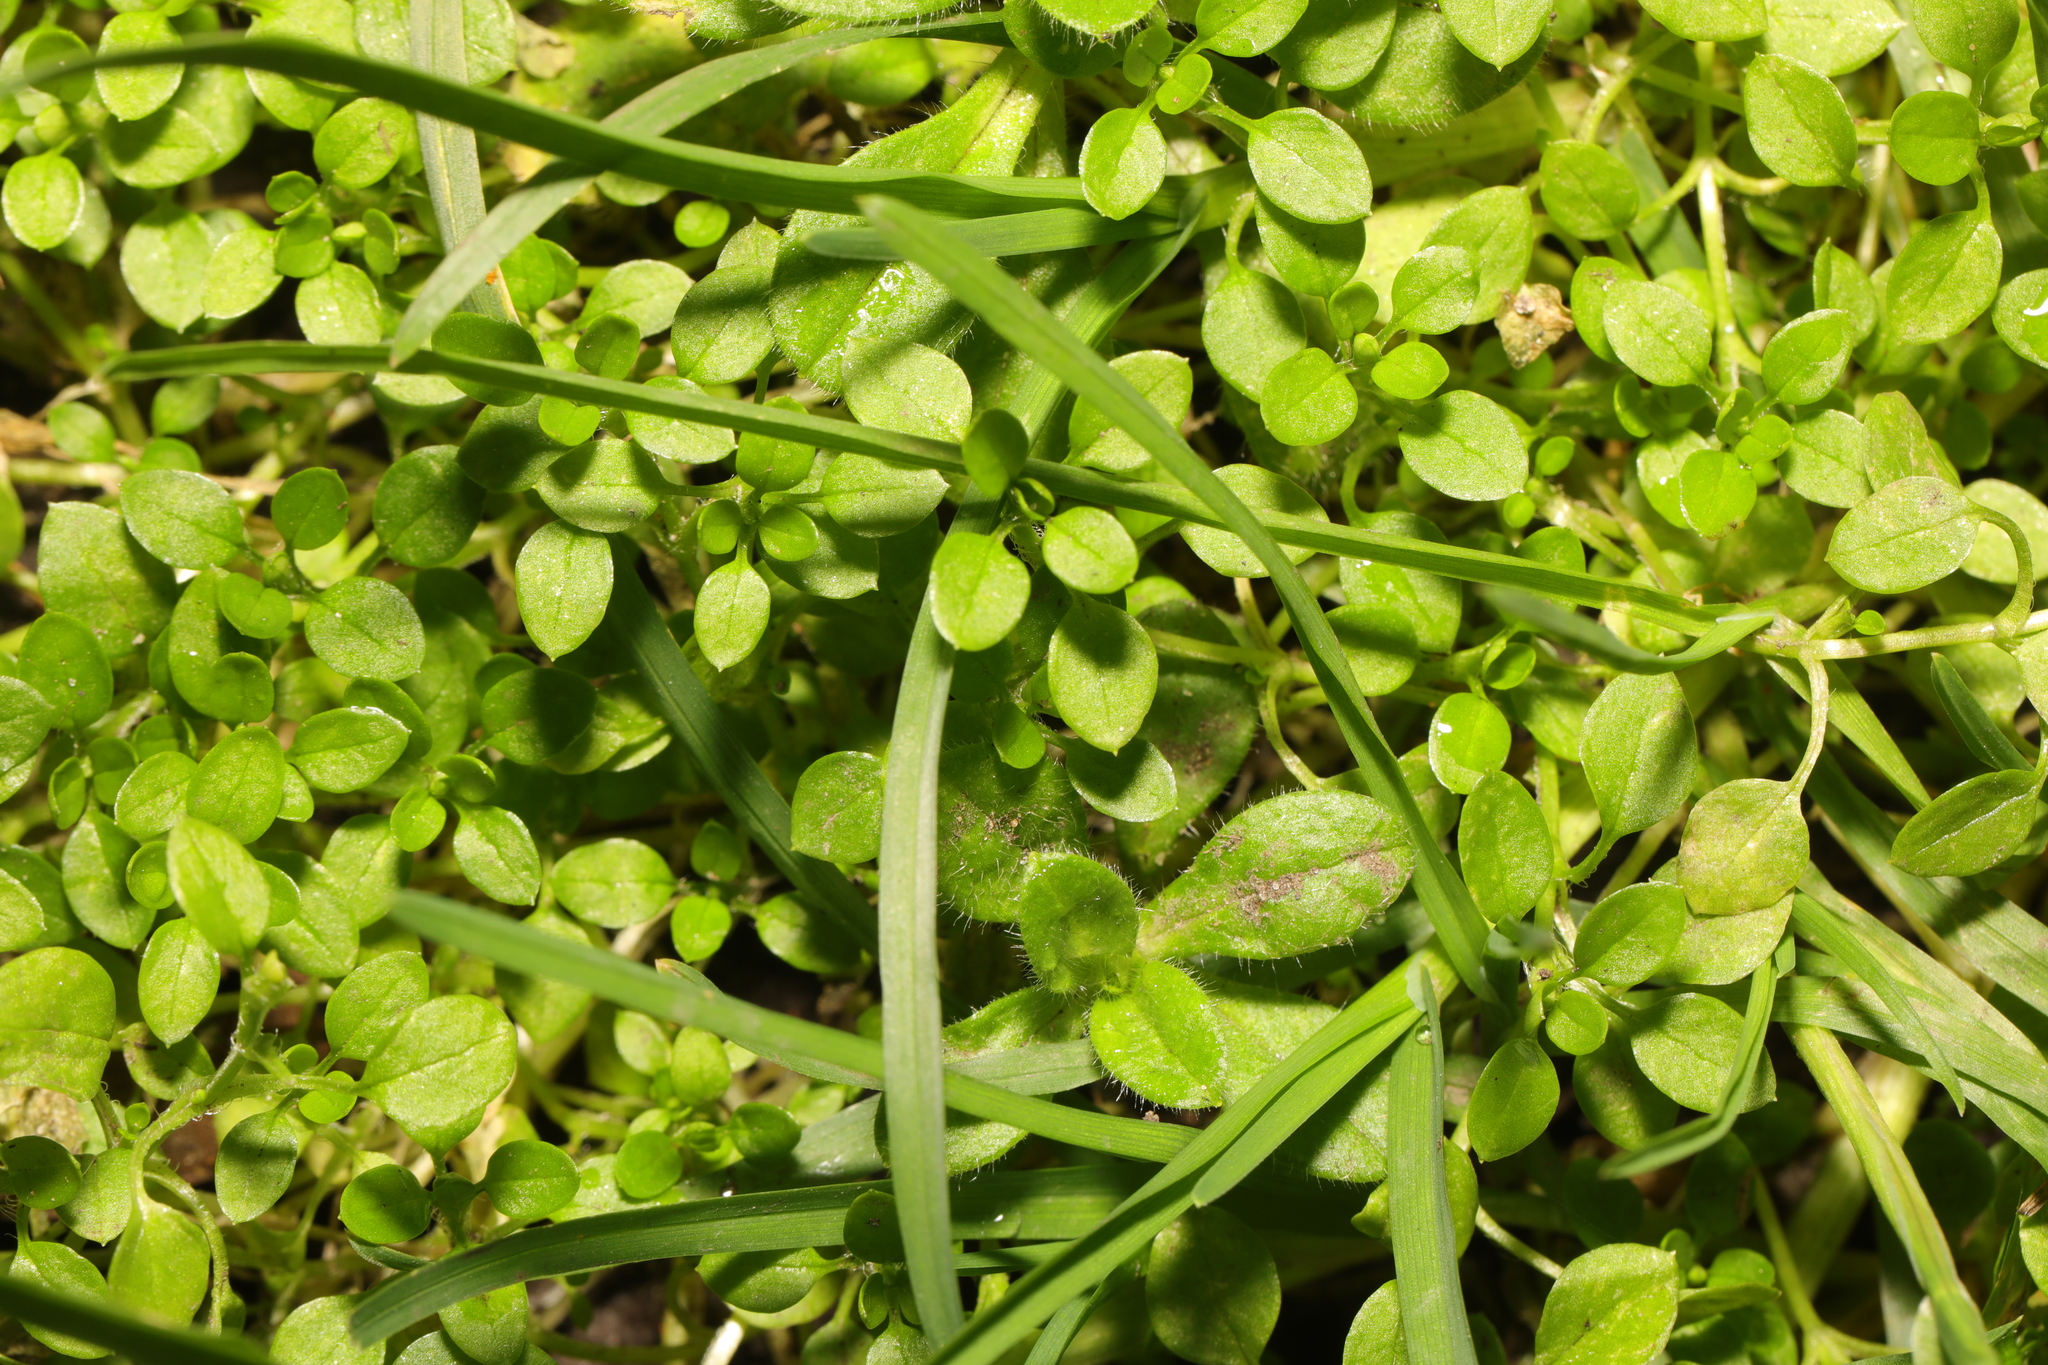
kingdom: Plantae
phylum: Tracheophyta
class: Magnoliopsida
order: Caryophyllales
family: Caryophyllaceae
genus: Stellaria
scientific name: Stellaria media
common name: Common chickweed
